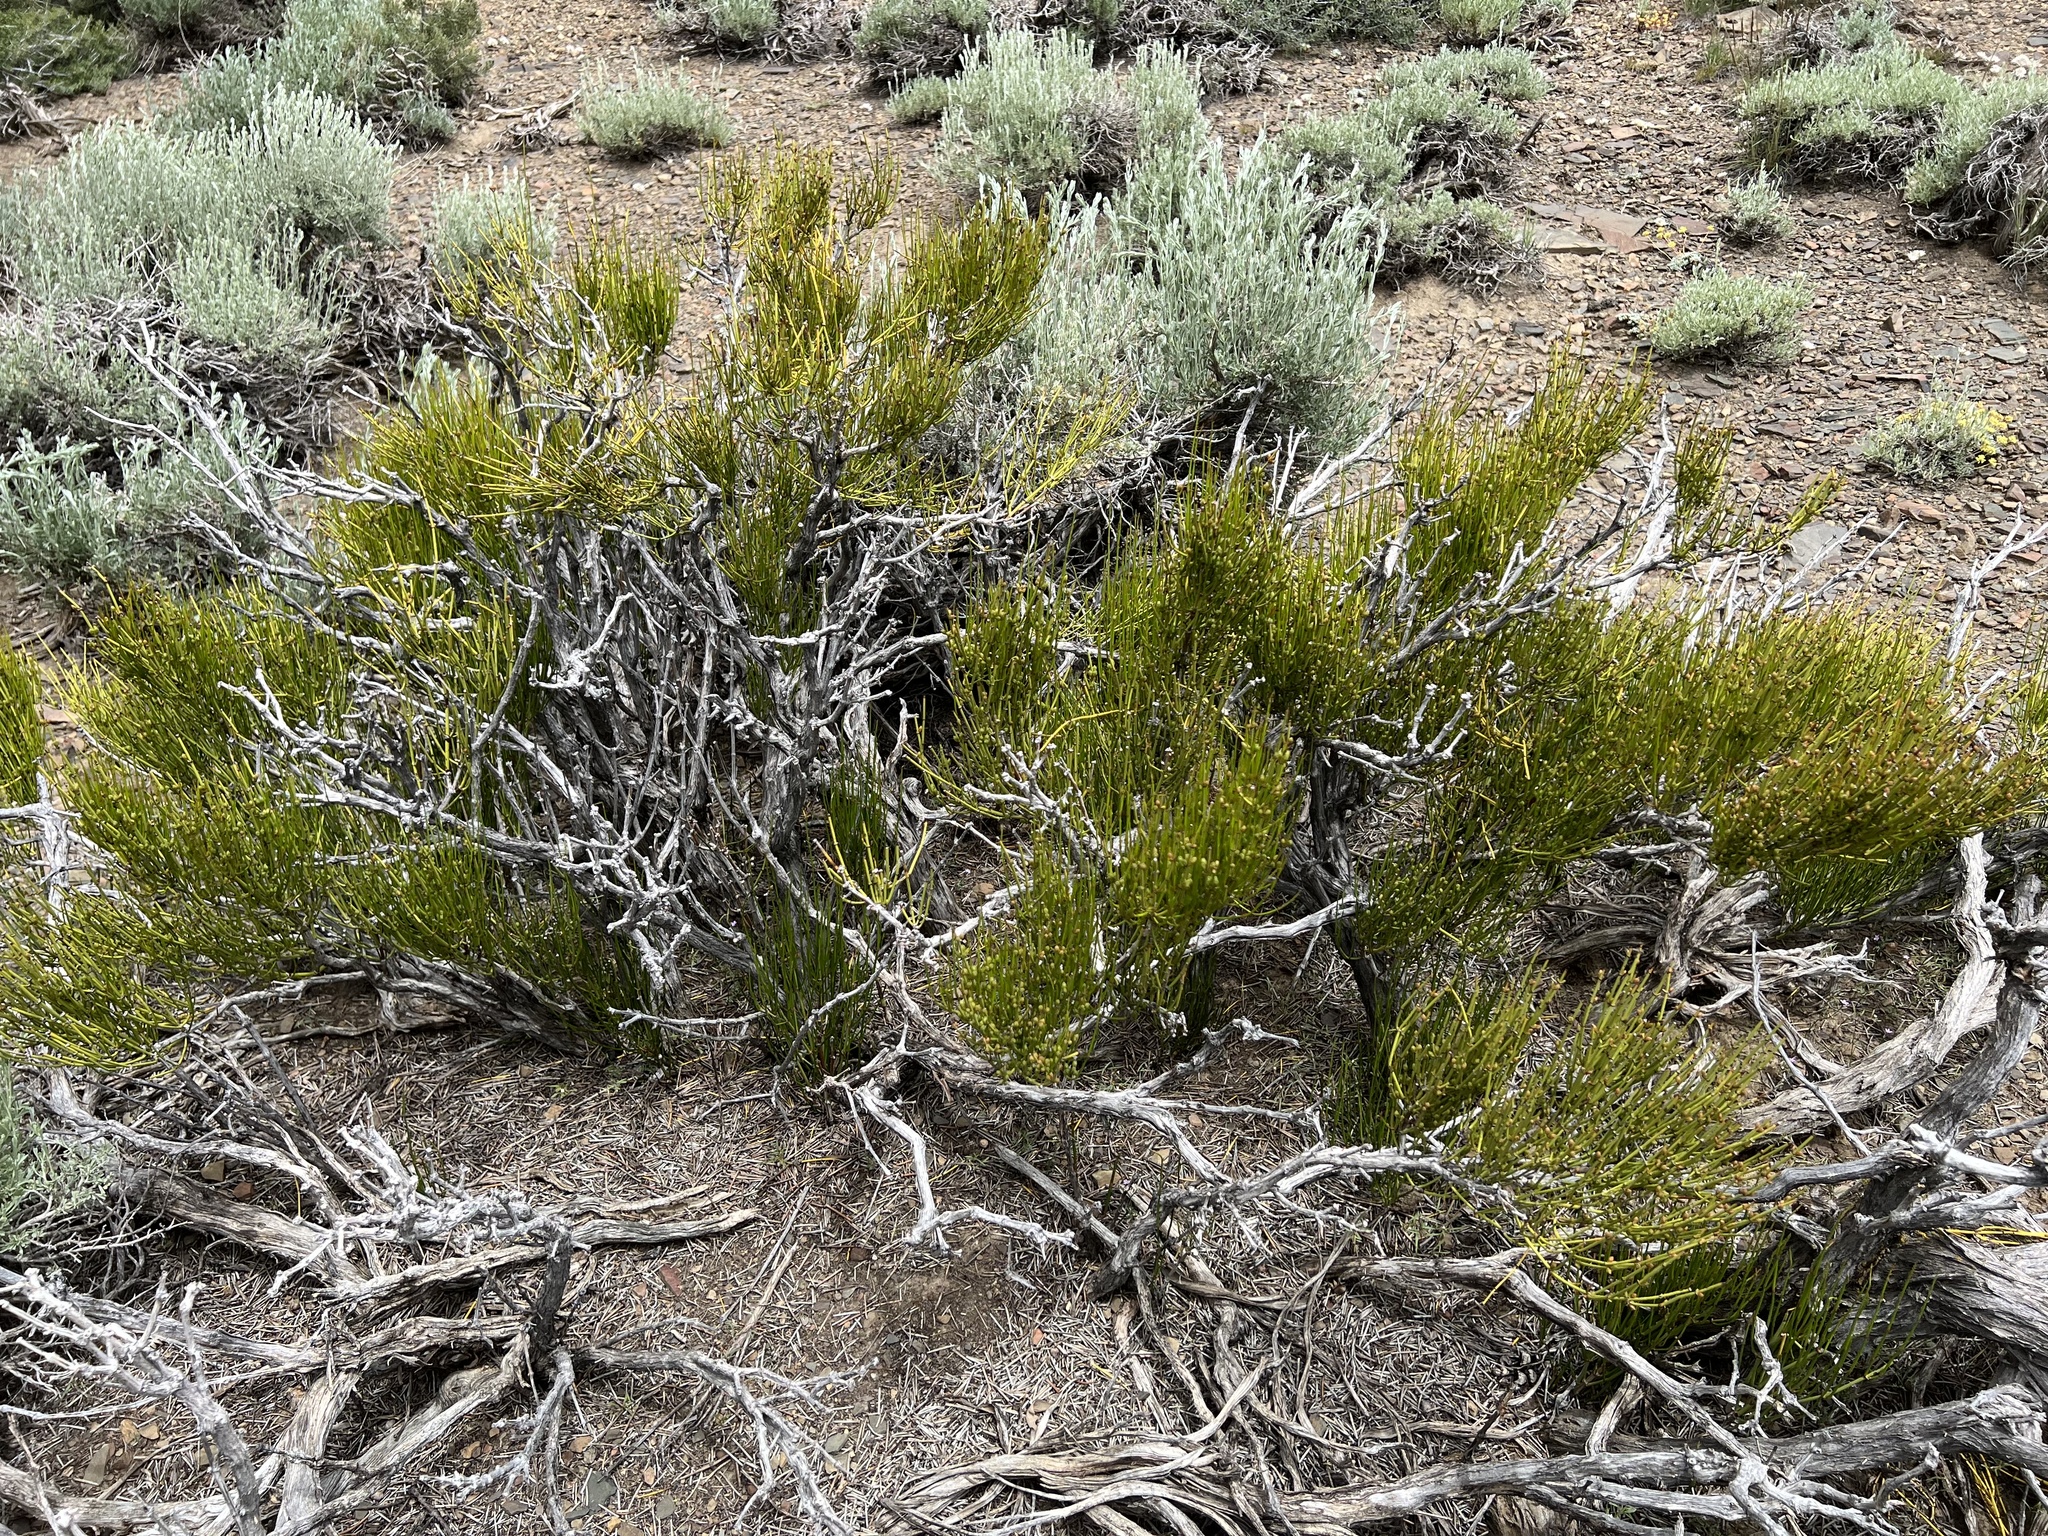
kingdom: Plantae
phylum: Tracheophyta
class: Gnetopsida
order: Ephedrales
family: Ephedraceae
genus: Ephedra
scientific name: Ephedra viridis
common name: Green ephedra
